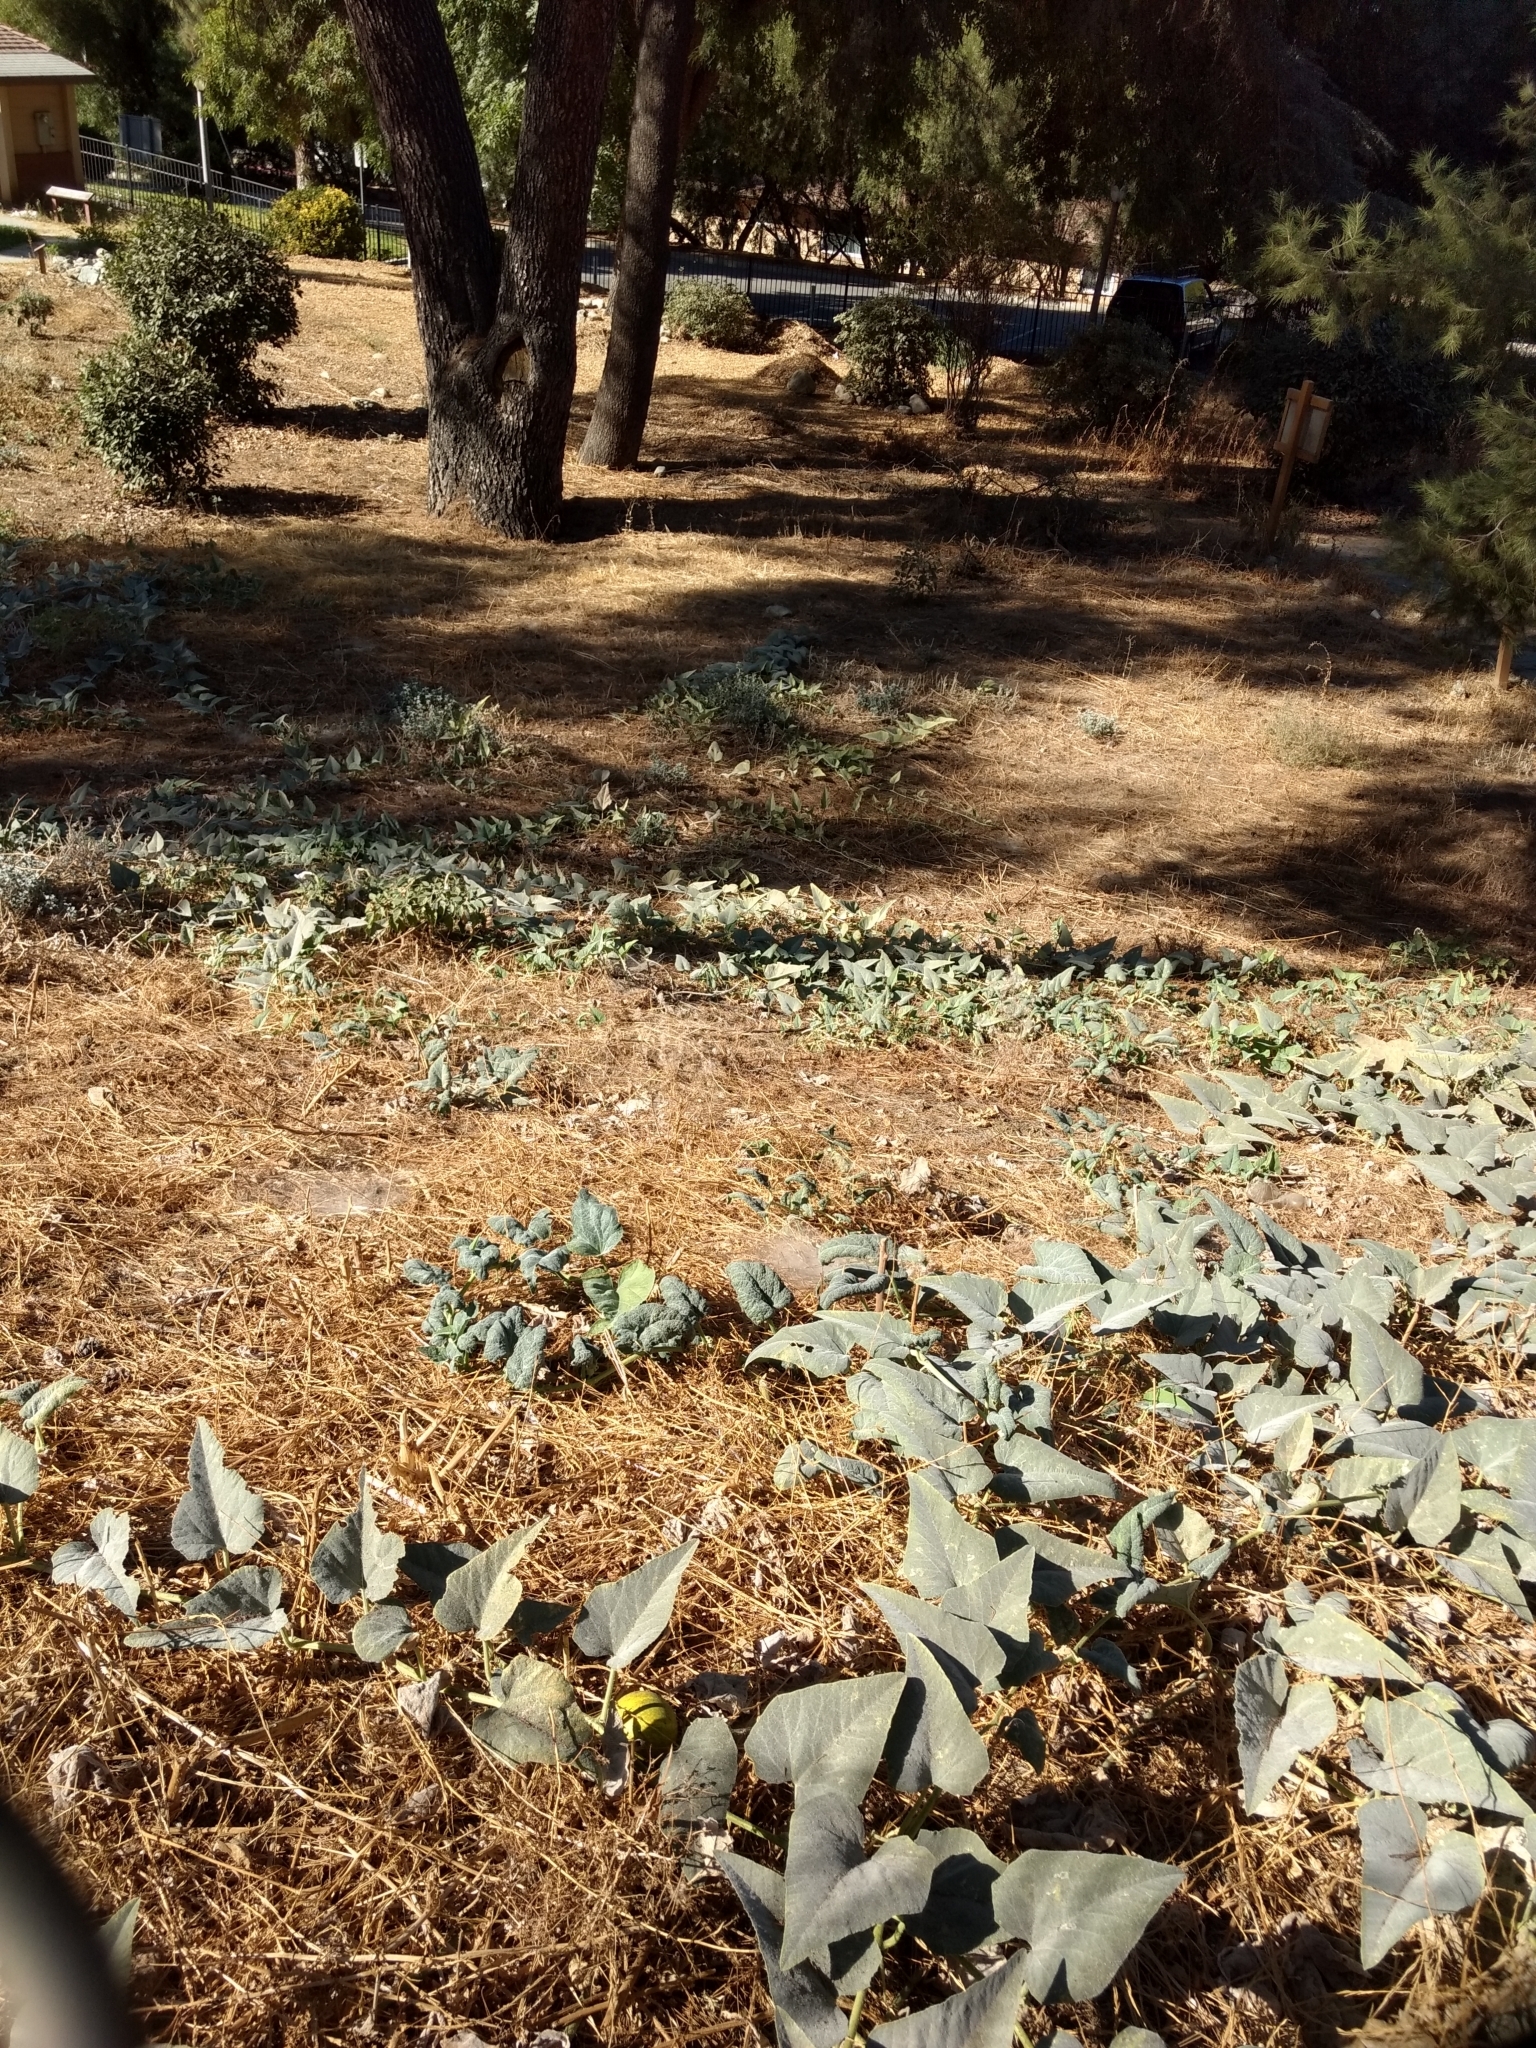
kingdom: Plantae
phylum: Tracheophyta
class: Magnoliopsida
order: Cucurbitales
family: Cucurbitaceae
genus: Cucurbita
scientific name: Cucurbita foetidissima
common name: Buffalo gourd
